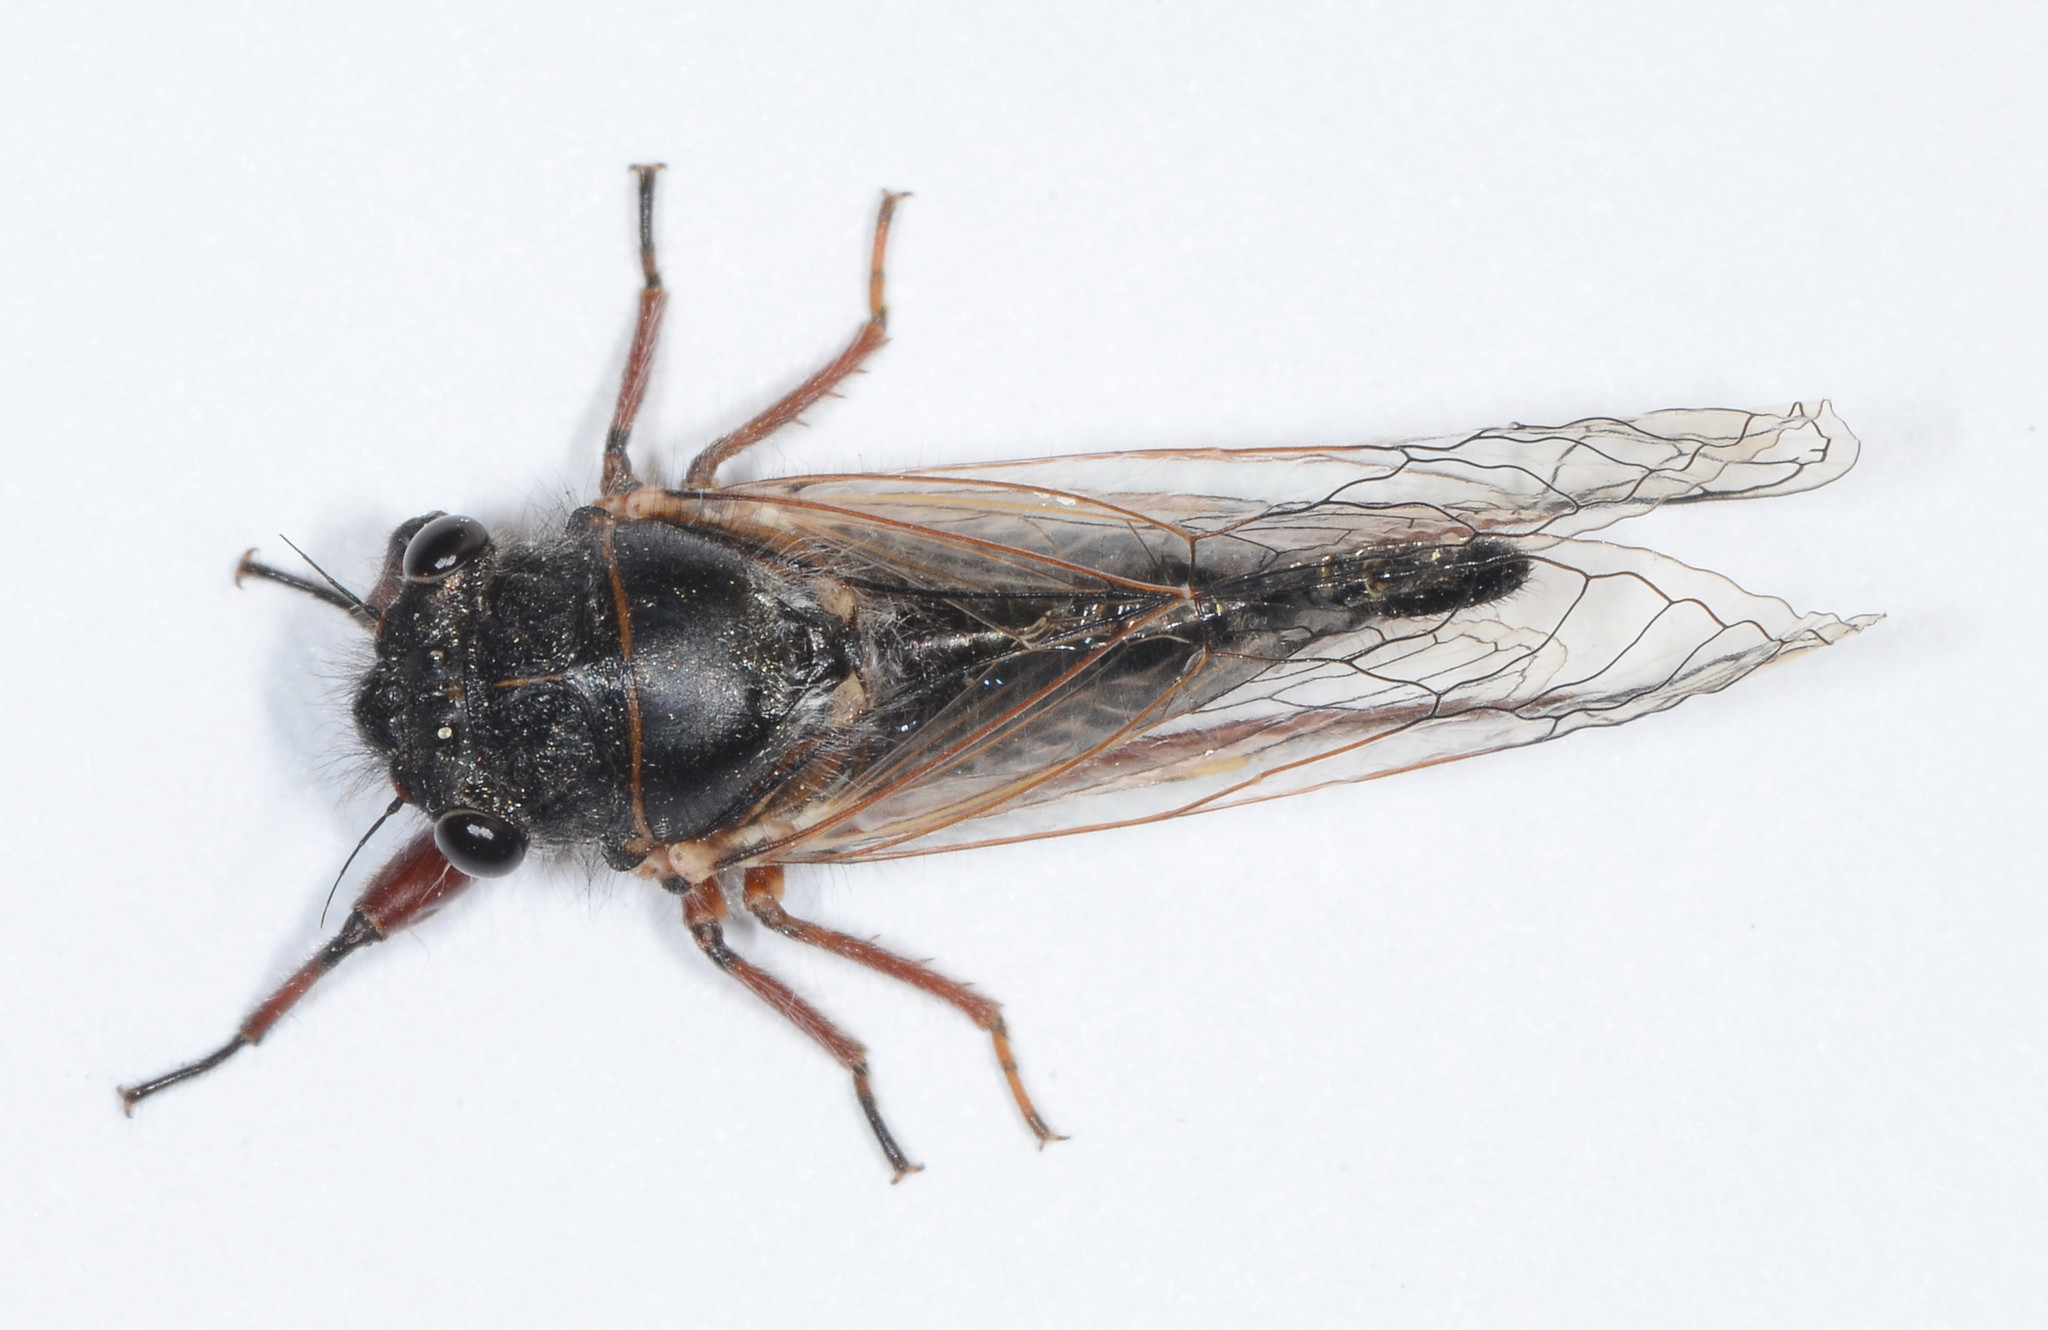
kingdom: Animalia
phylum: Arthropoda
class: Insecta
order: Hemiptera
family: Cicadidae
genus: Platypedia
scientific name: Platypedia minor
